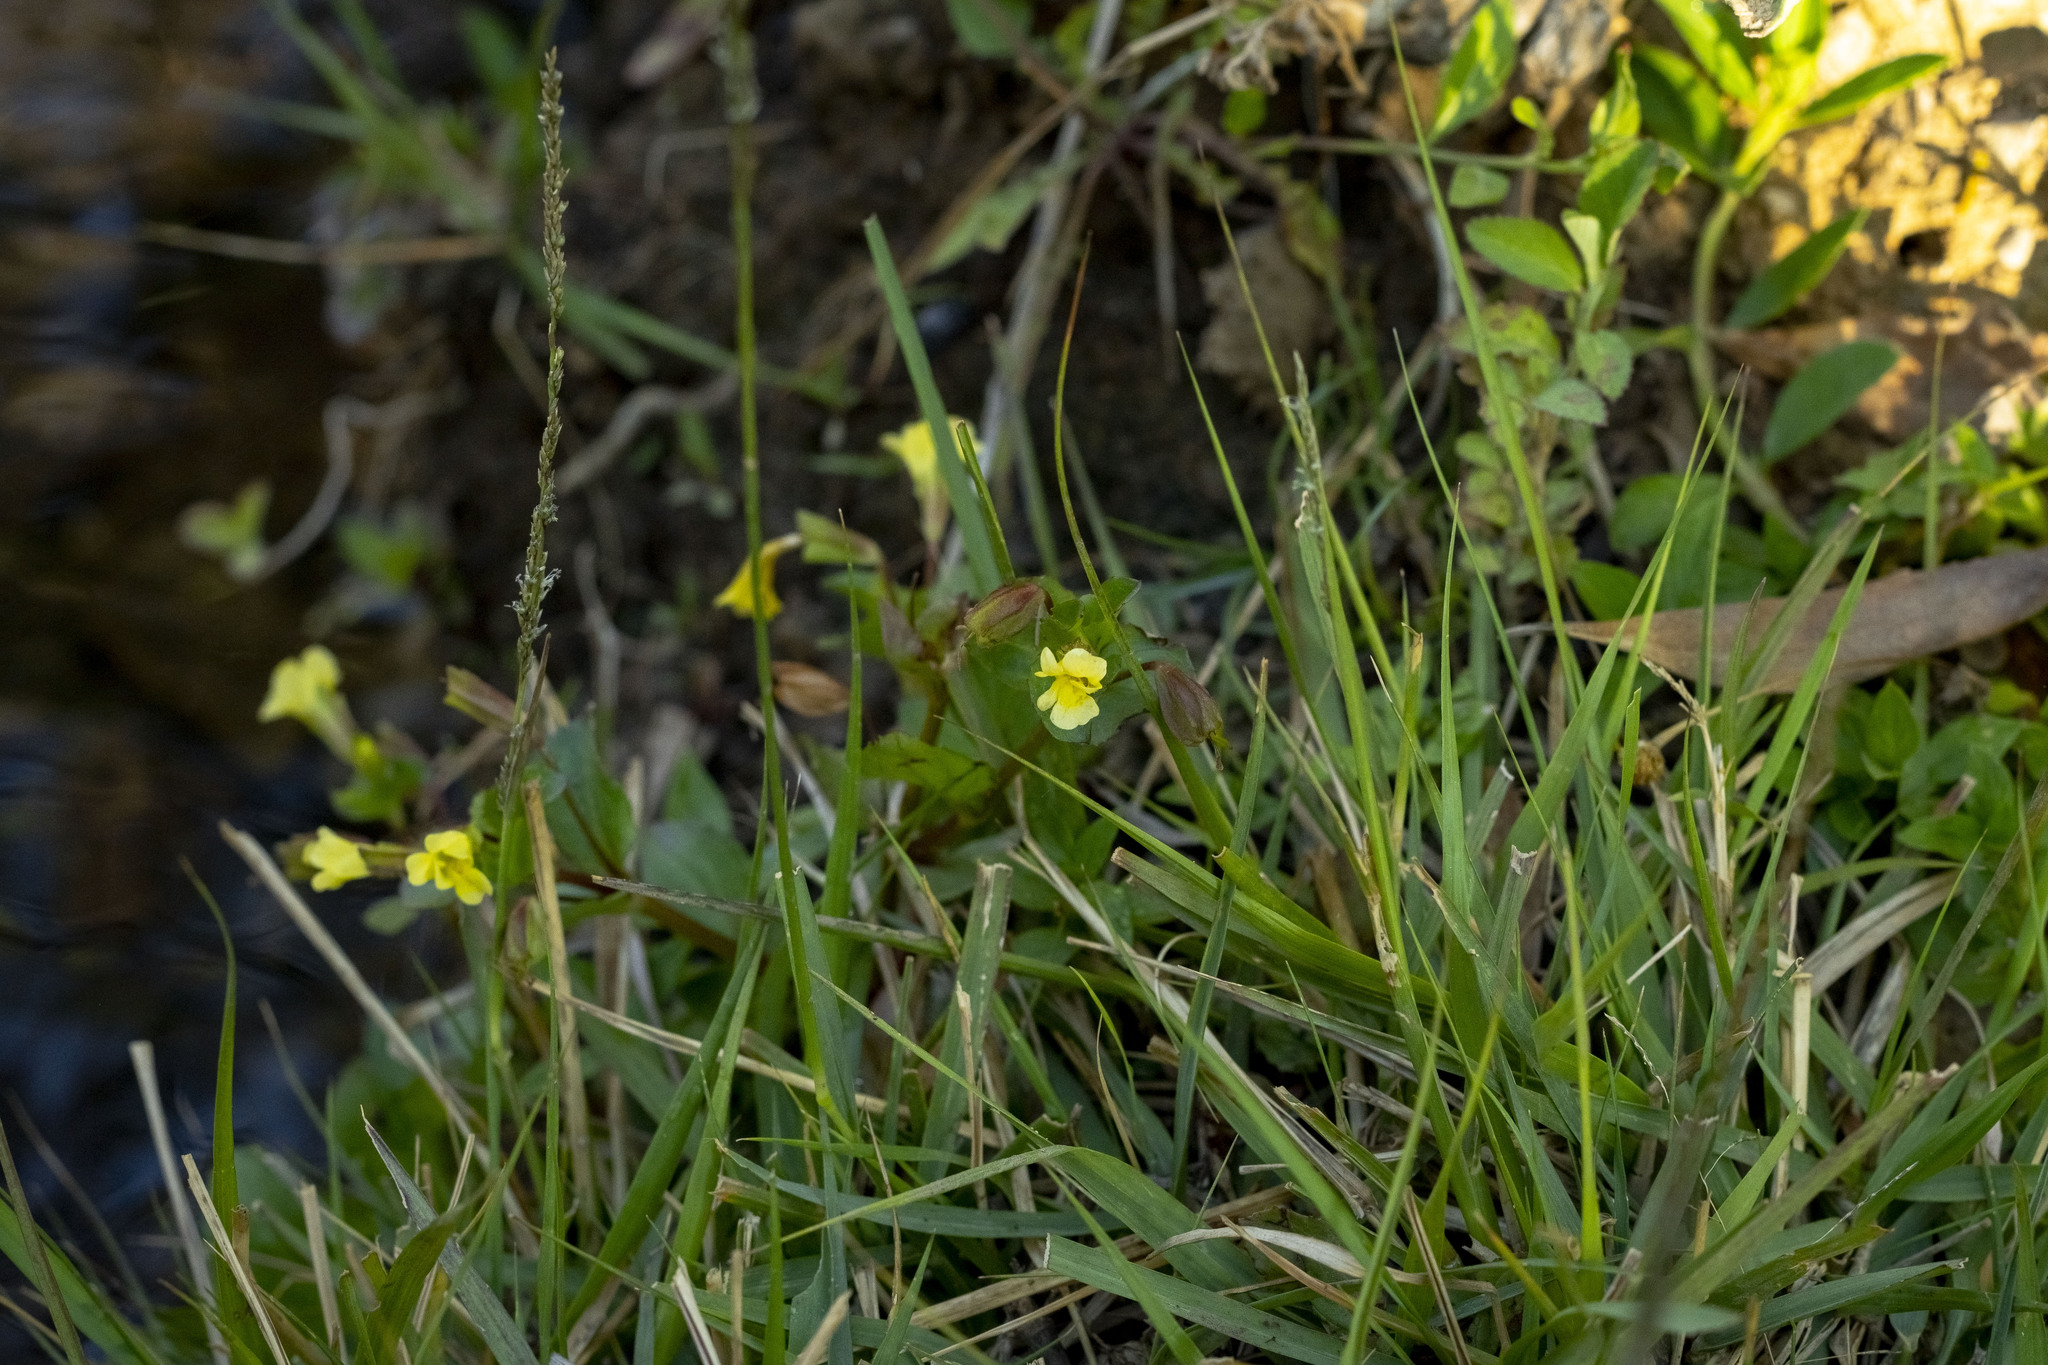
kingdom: Plantae
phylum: Tracheophyta
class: Magnoliopsida
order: Lamiales
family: Phrymaceae
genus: Erythranthe
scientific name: Erythranthe glabrata
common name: Round-leaved monkeyflower
